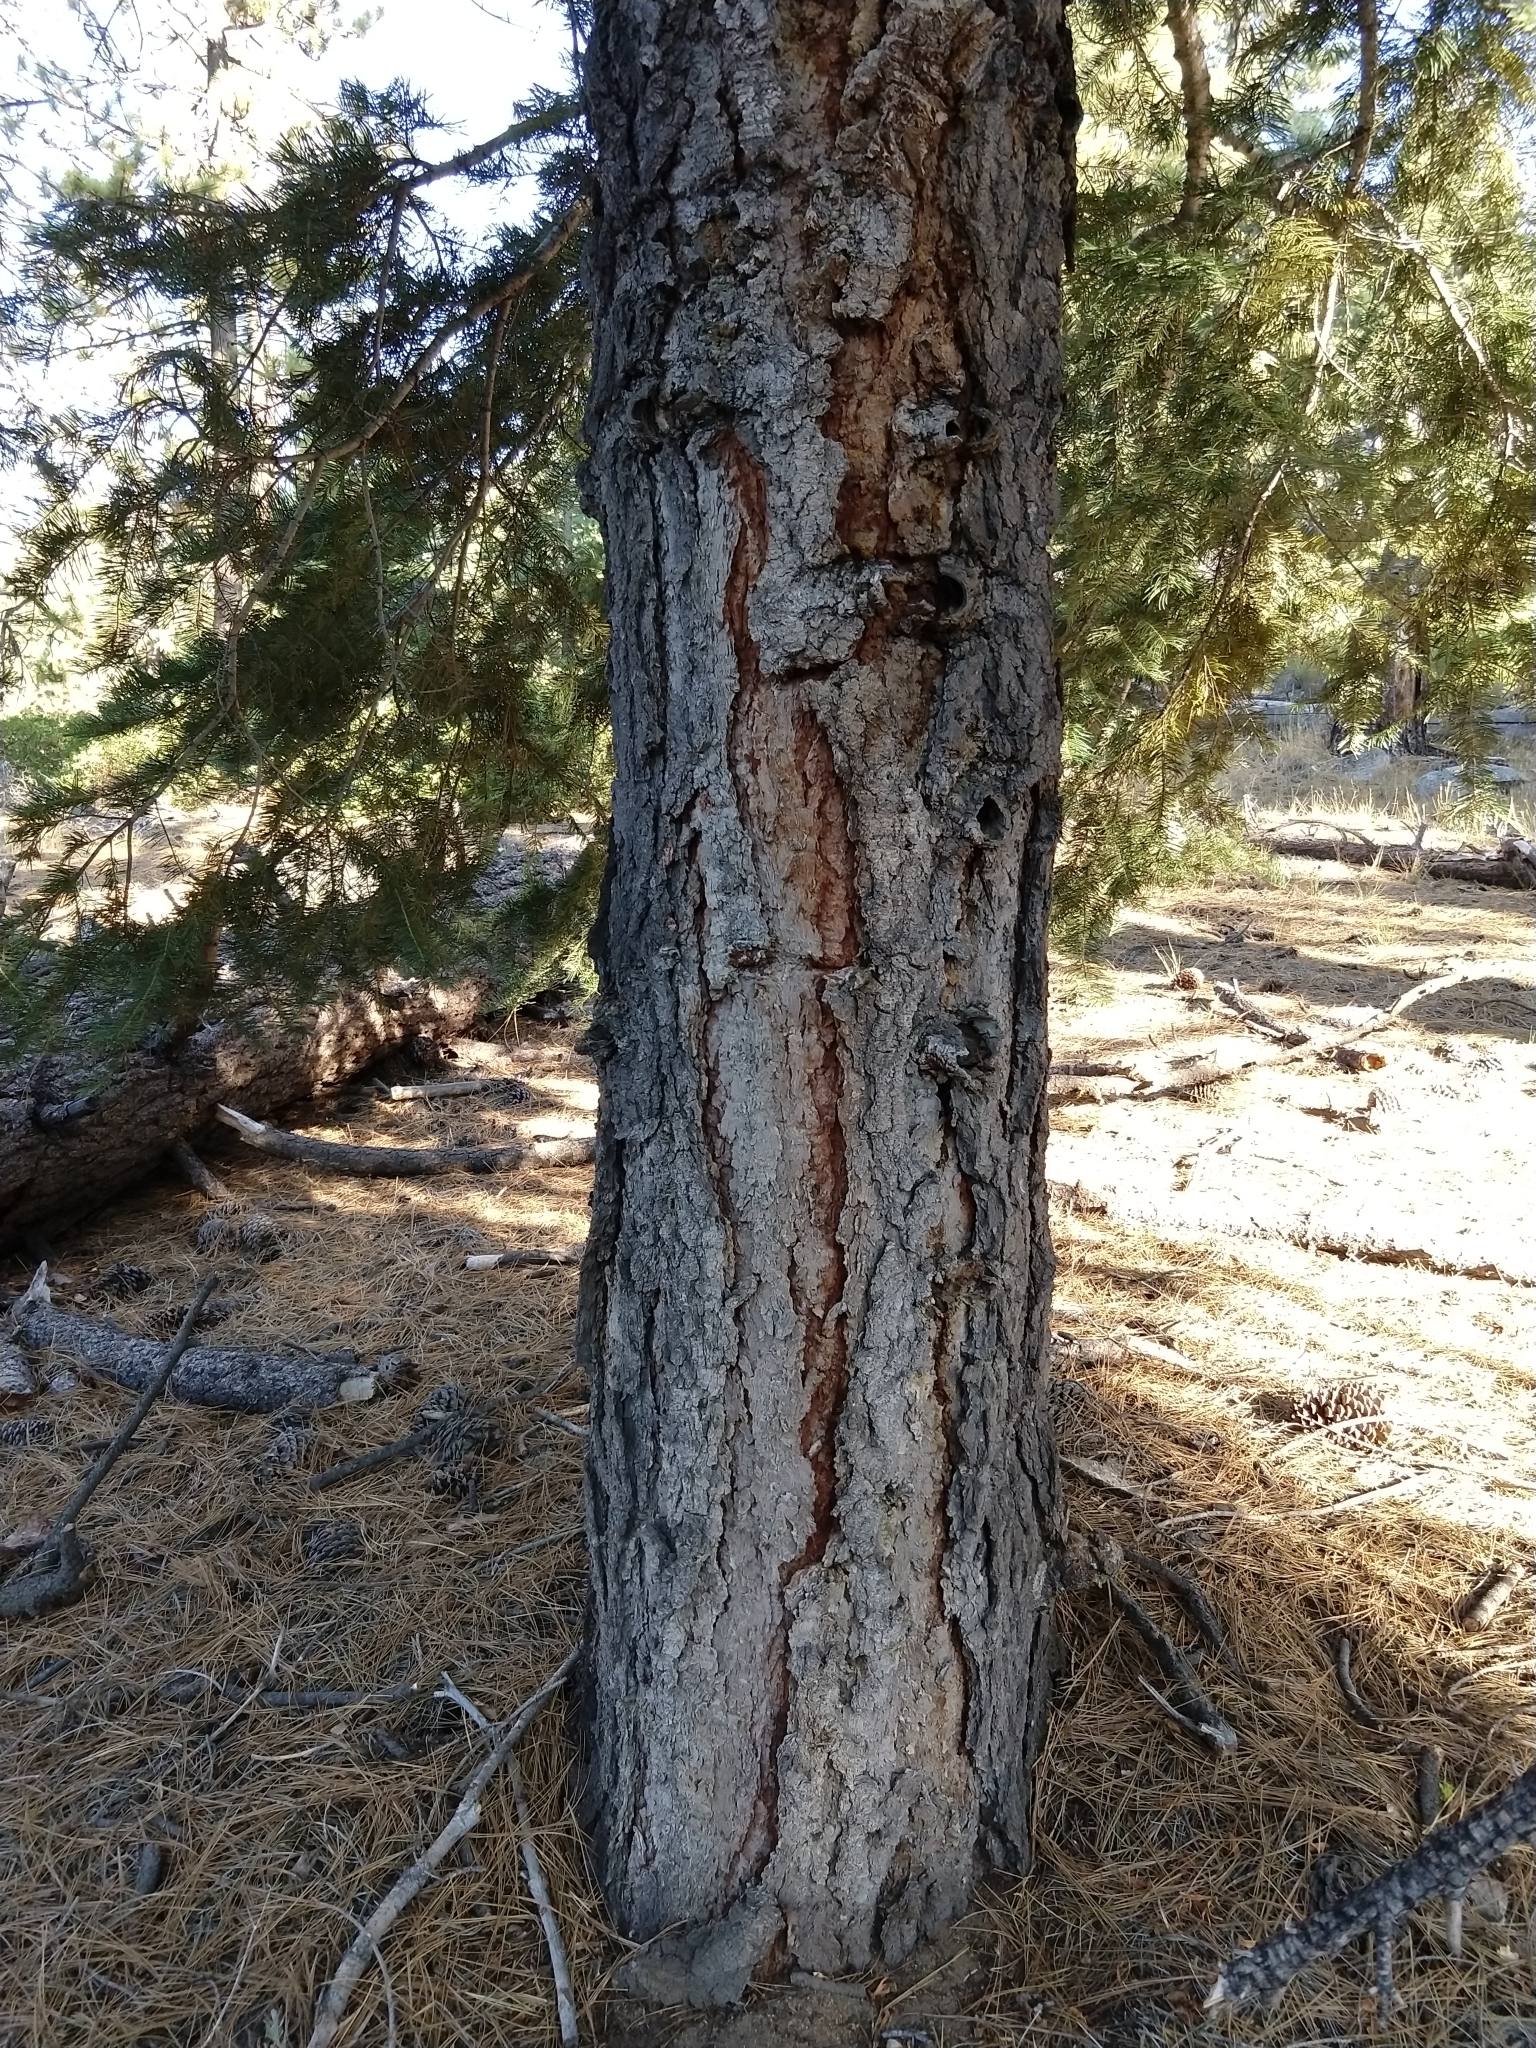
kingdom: Plantae
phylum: Tracheophyta
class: Pinopsida
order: Pinales
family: Pinaceae
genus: Abies
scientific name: Abies concolor
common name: Colorado fir
